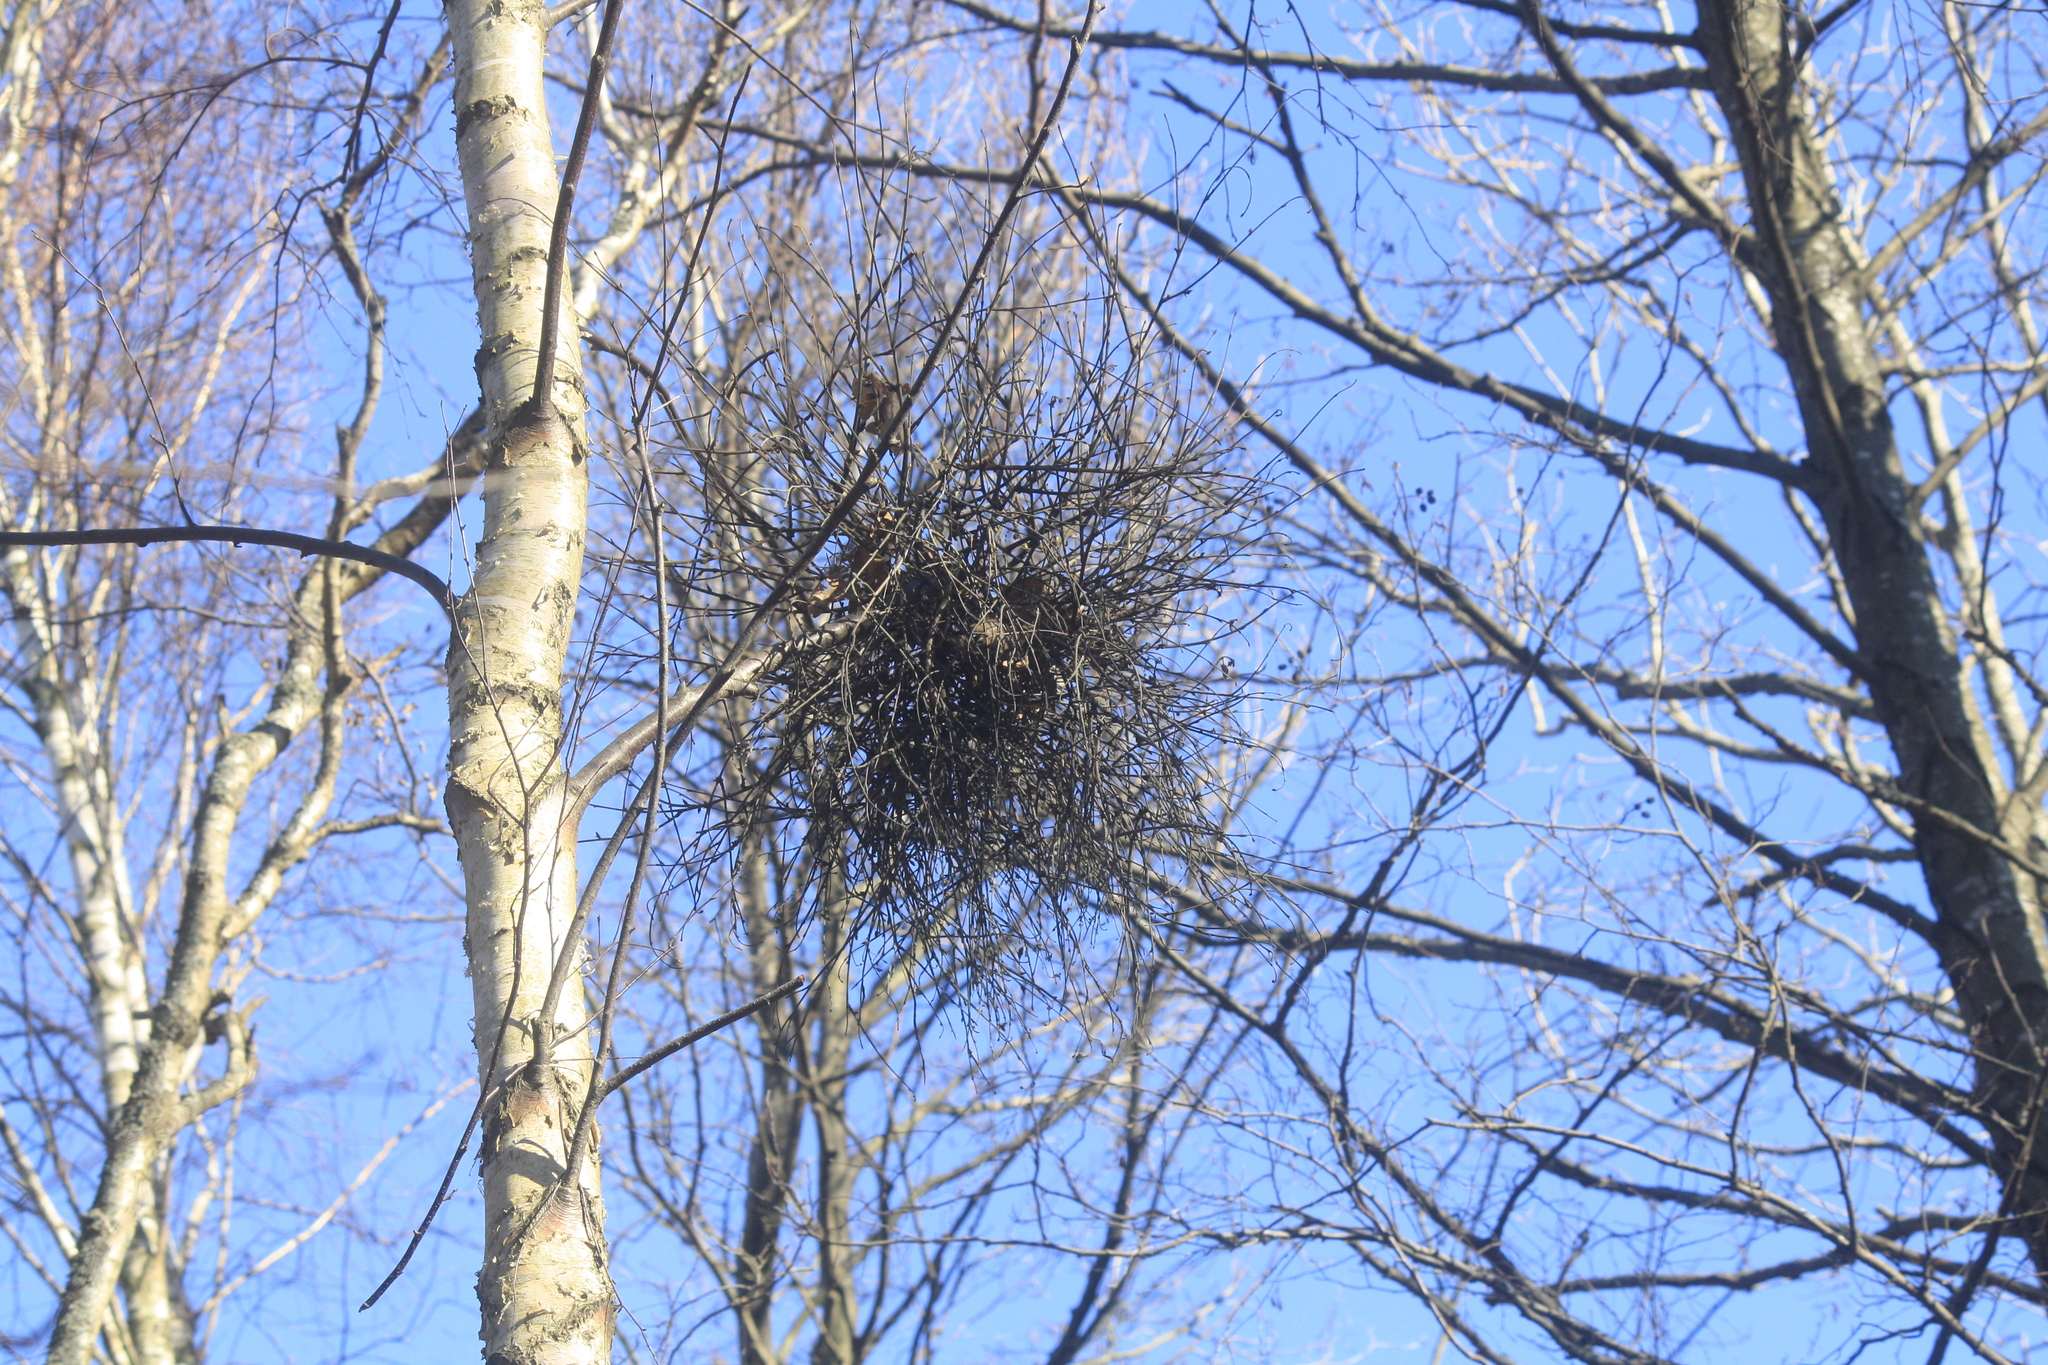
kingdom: Fungi
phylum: Ascomycota
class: Taphrinomycetes
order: Taphrinales
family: Taphrinaceae
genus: Taphrina
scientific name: Taphrina betulina
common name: Birch besom
